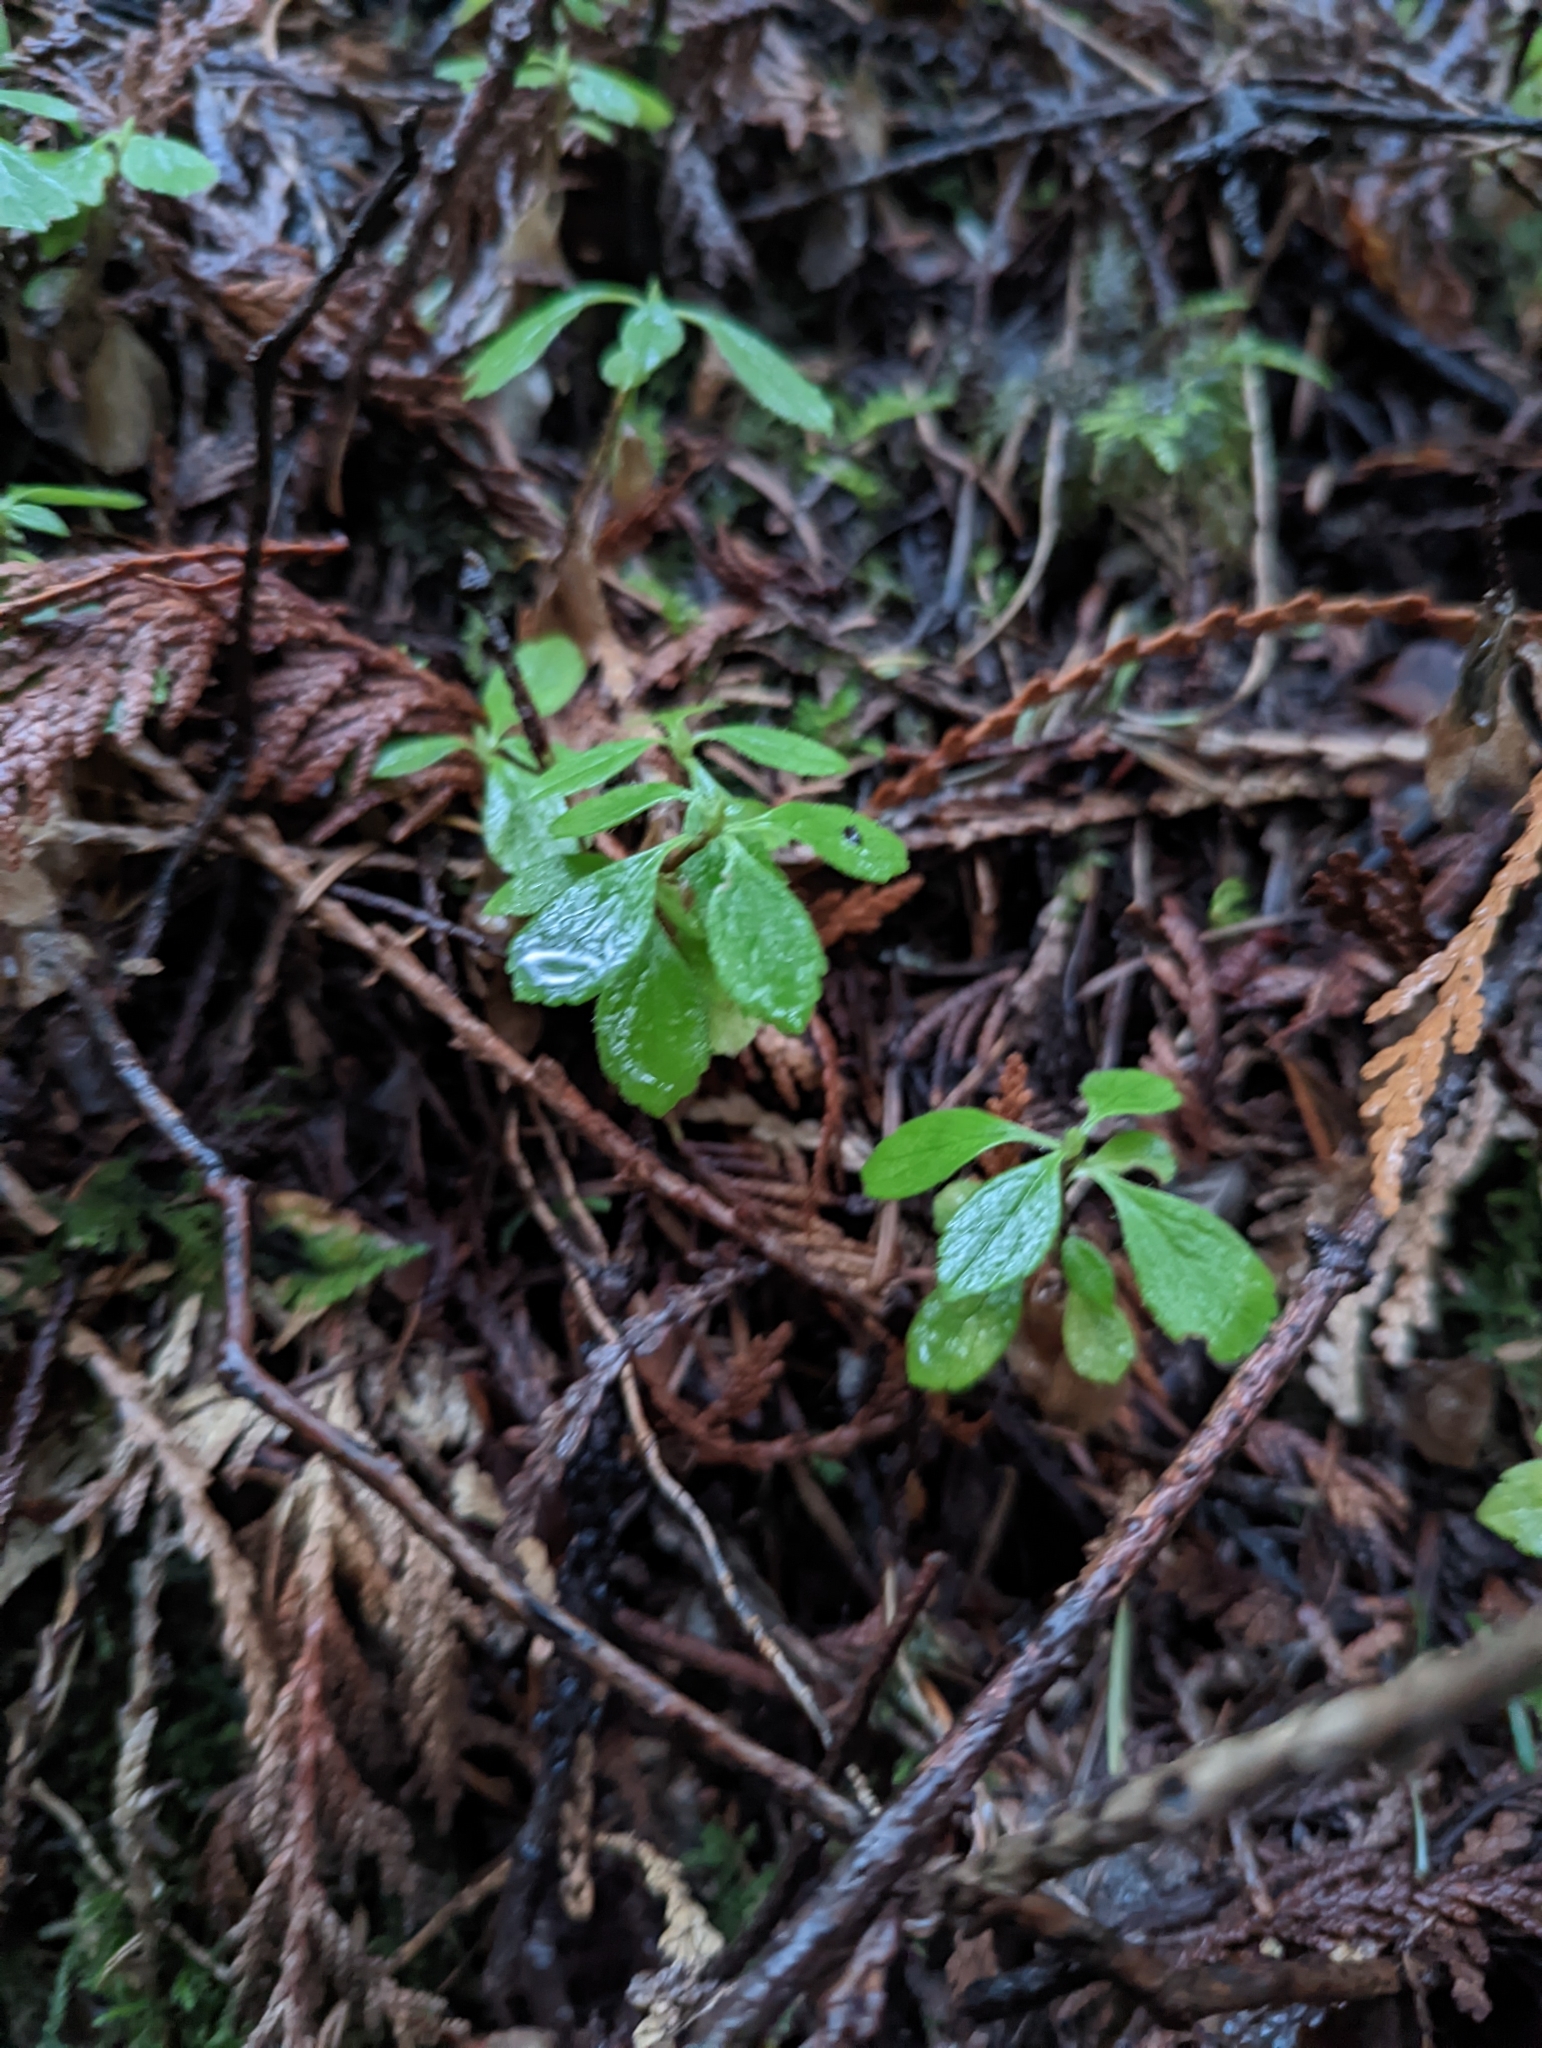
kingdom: Plantae
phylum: Tracheophyta
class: Magnoliopsida
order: Dipsacales
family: Caprifoliaceae
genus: Linnaea
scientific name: Linnaea borealis
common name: Twinflower
